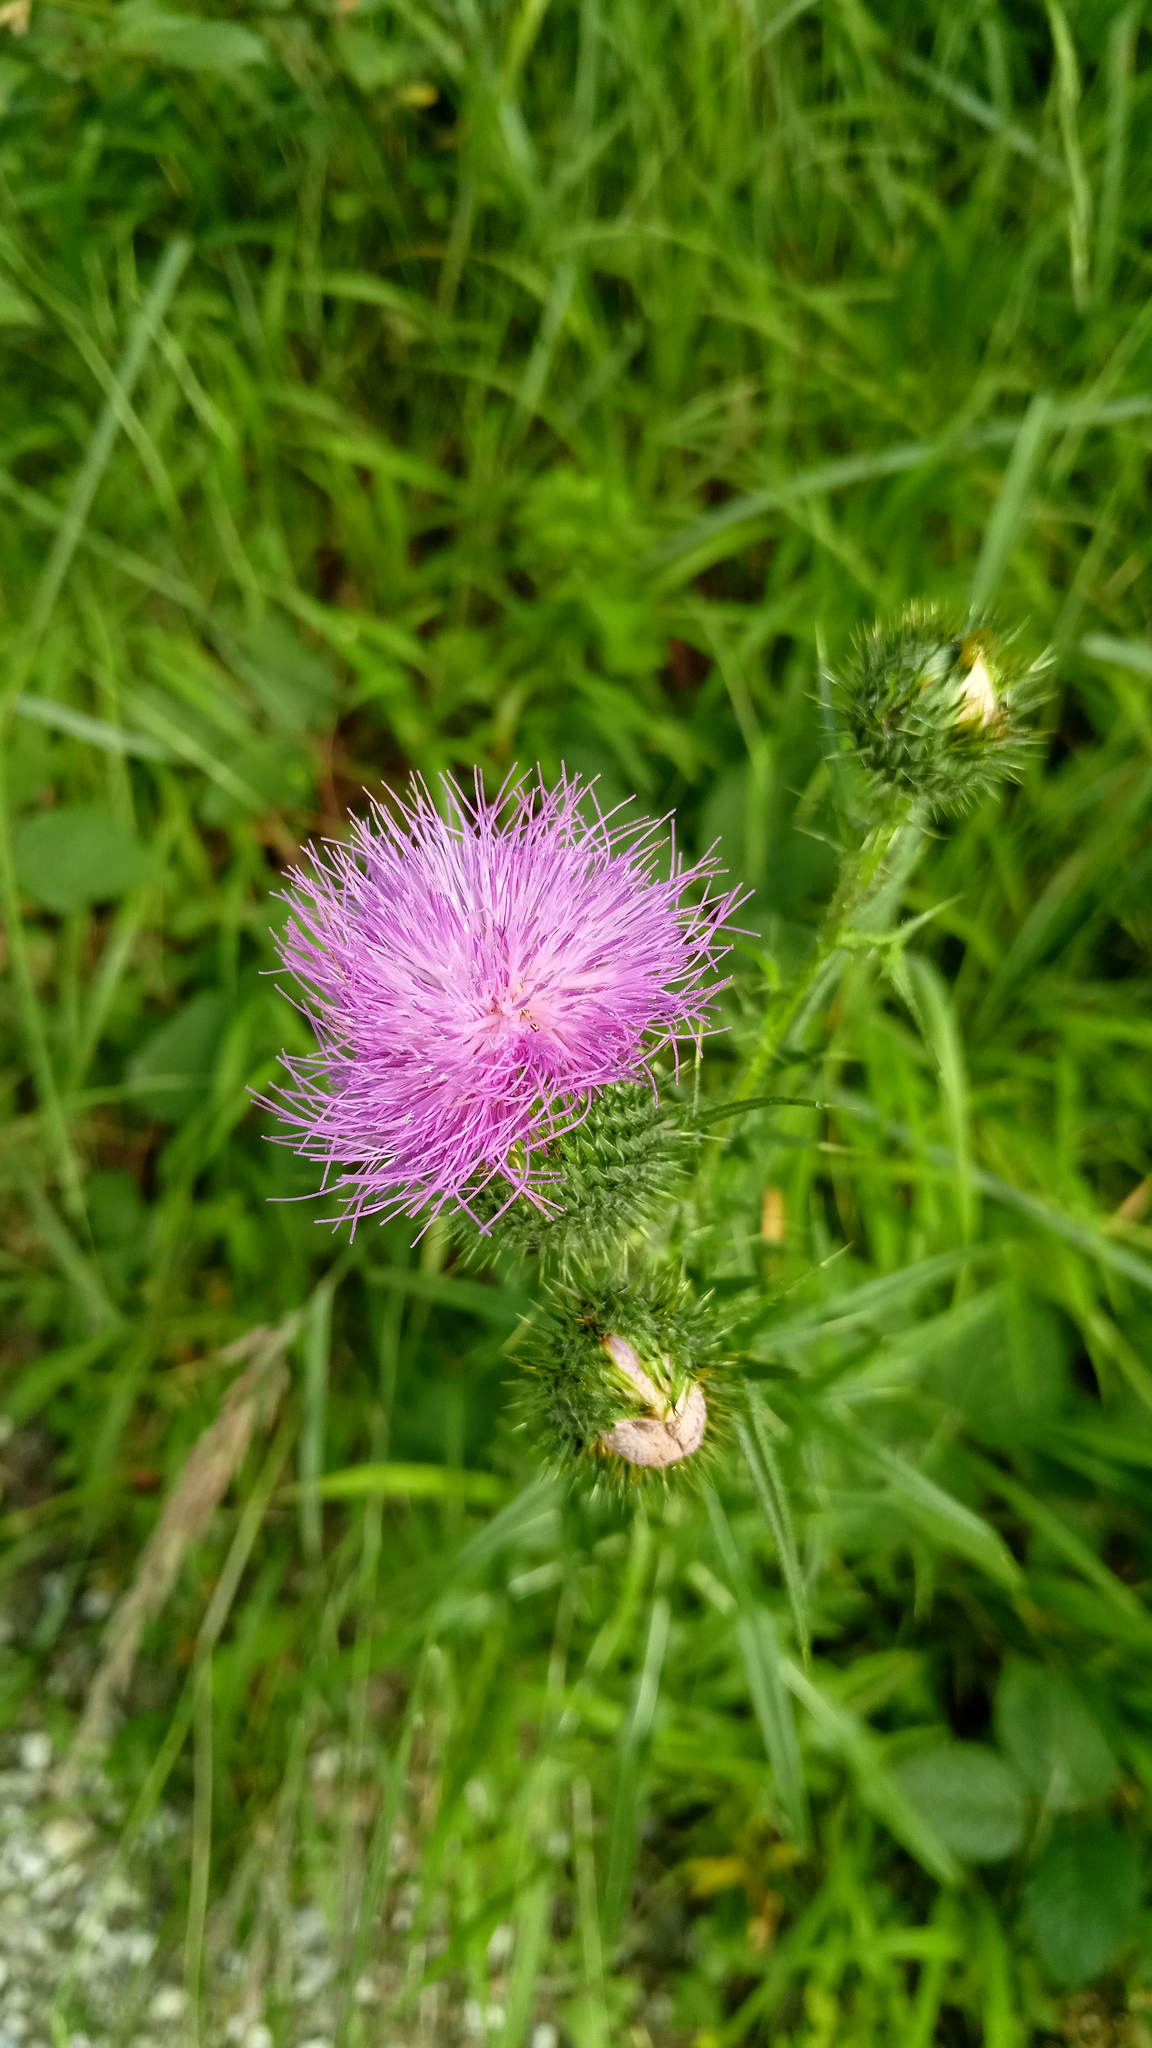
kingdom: Plantae
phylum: Tracheophyta
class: Magnoliopsida
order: Asterales
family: Asteraceae
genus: Cirsium
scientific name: Cirsium vulgare
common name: Bull thistle
